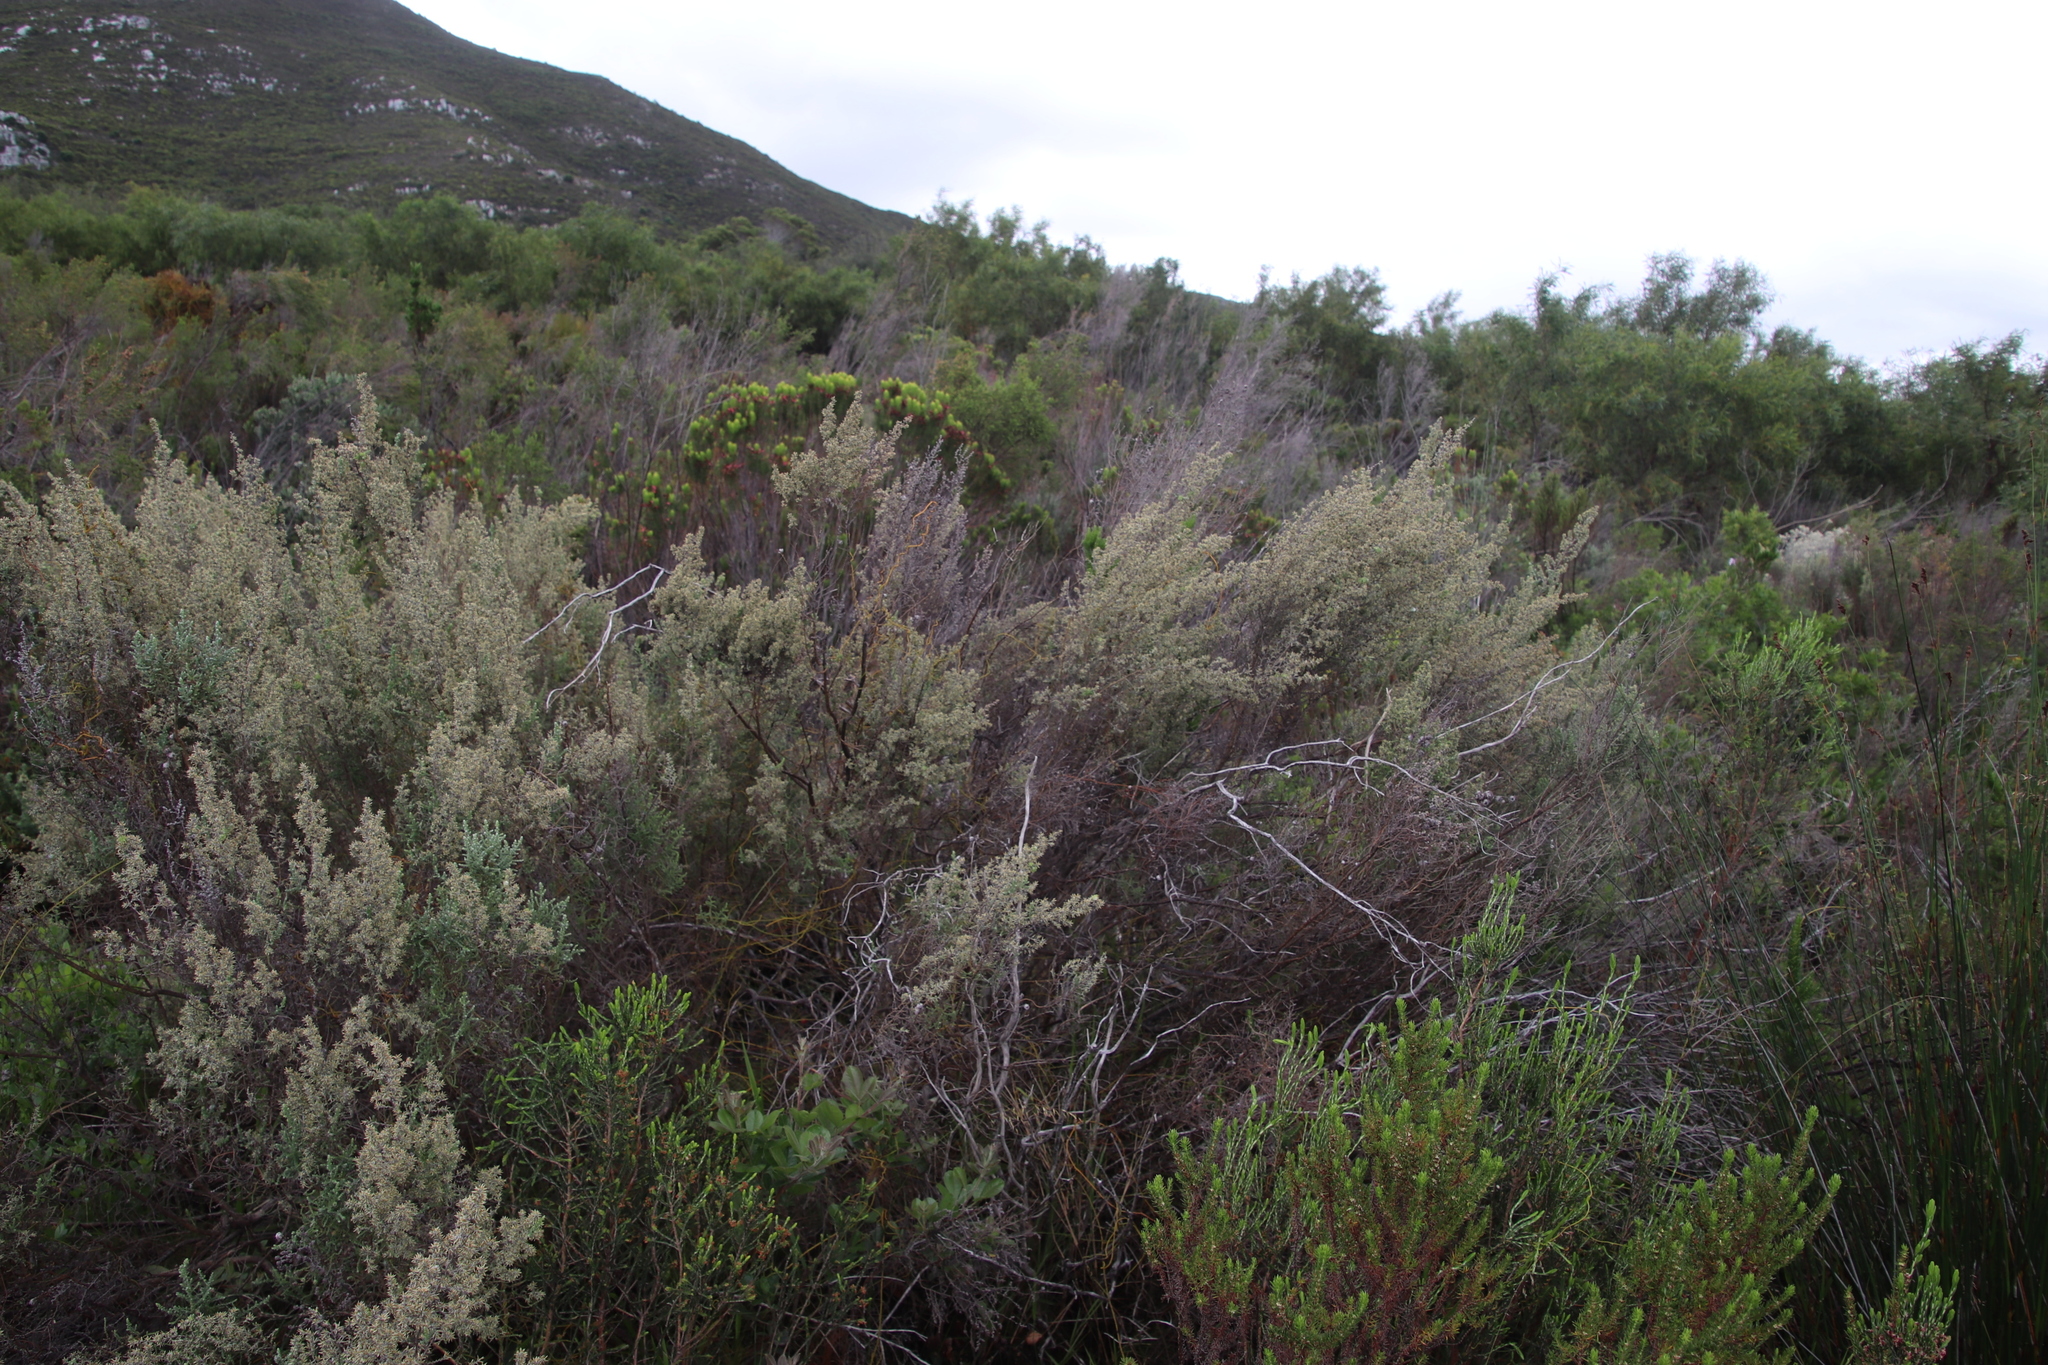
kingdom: Plantae
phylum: Tracheophyta
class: Magnoliopsida
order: Asterales
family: Asteraceae
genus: Seriphium
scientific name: Seriphium plumosum
